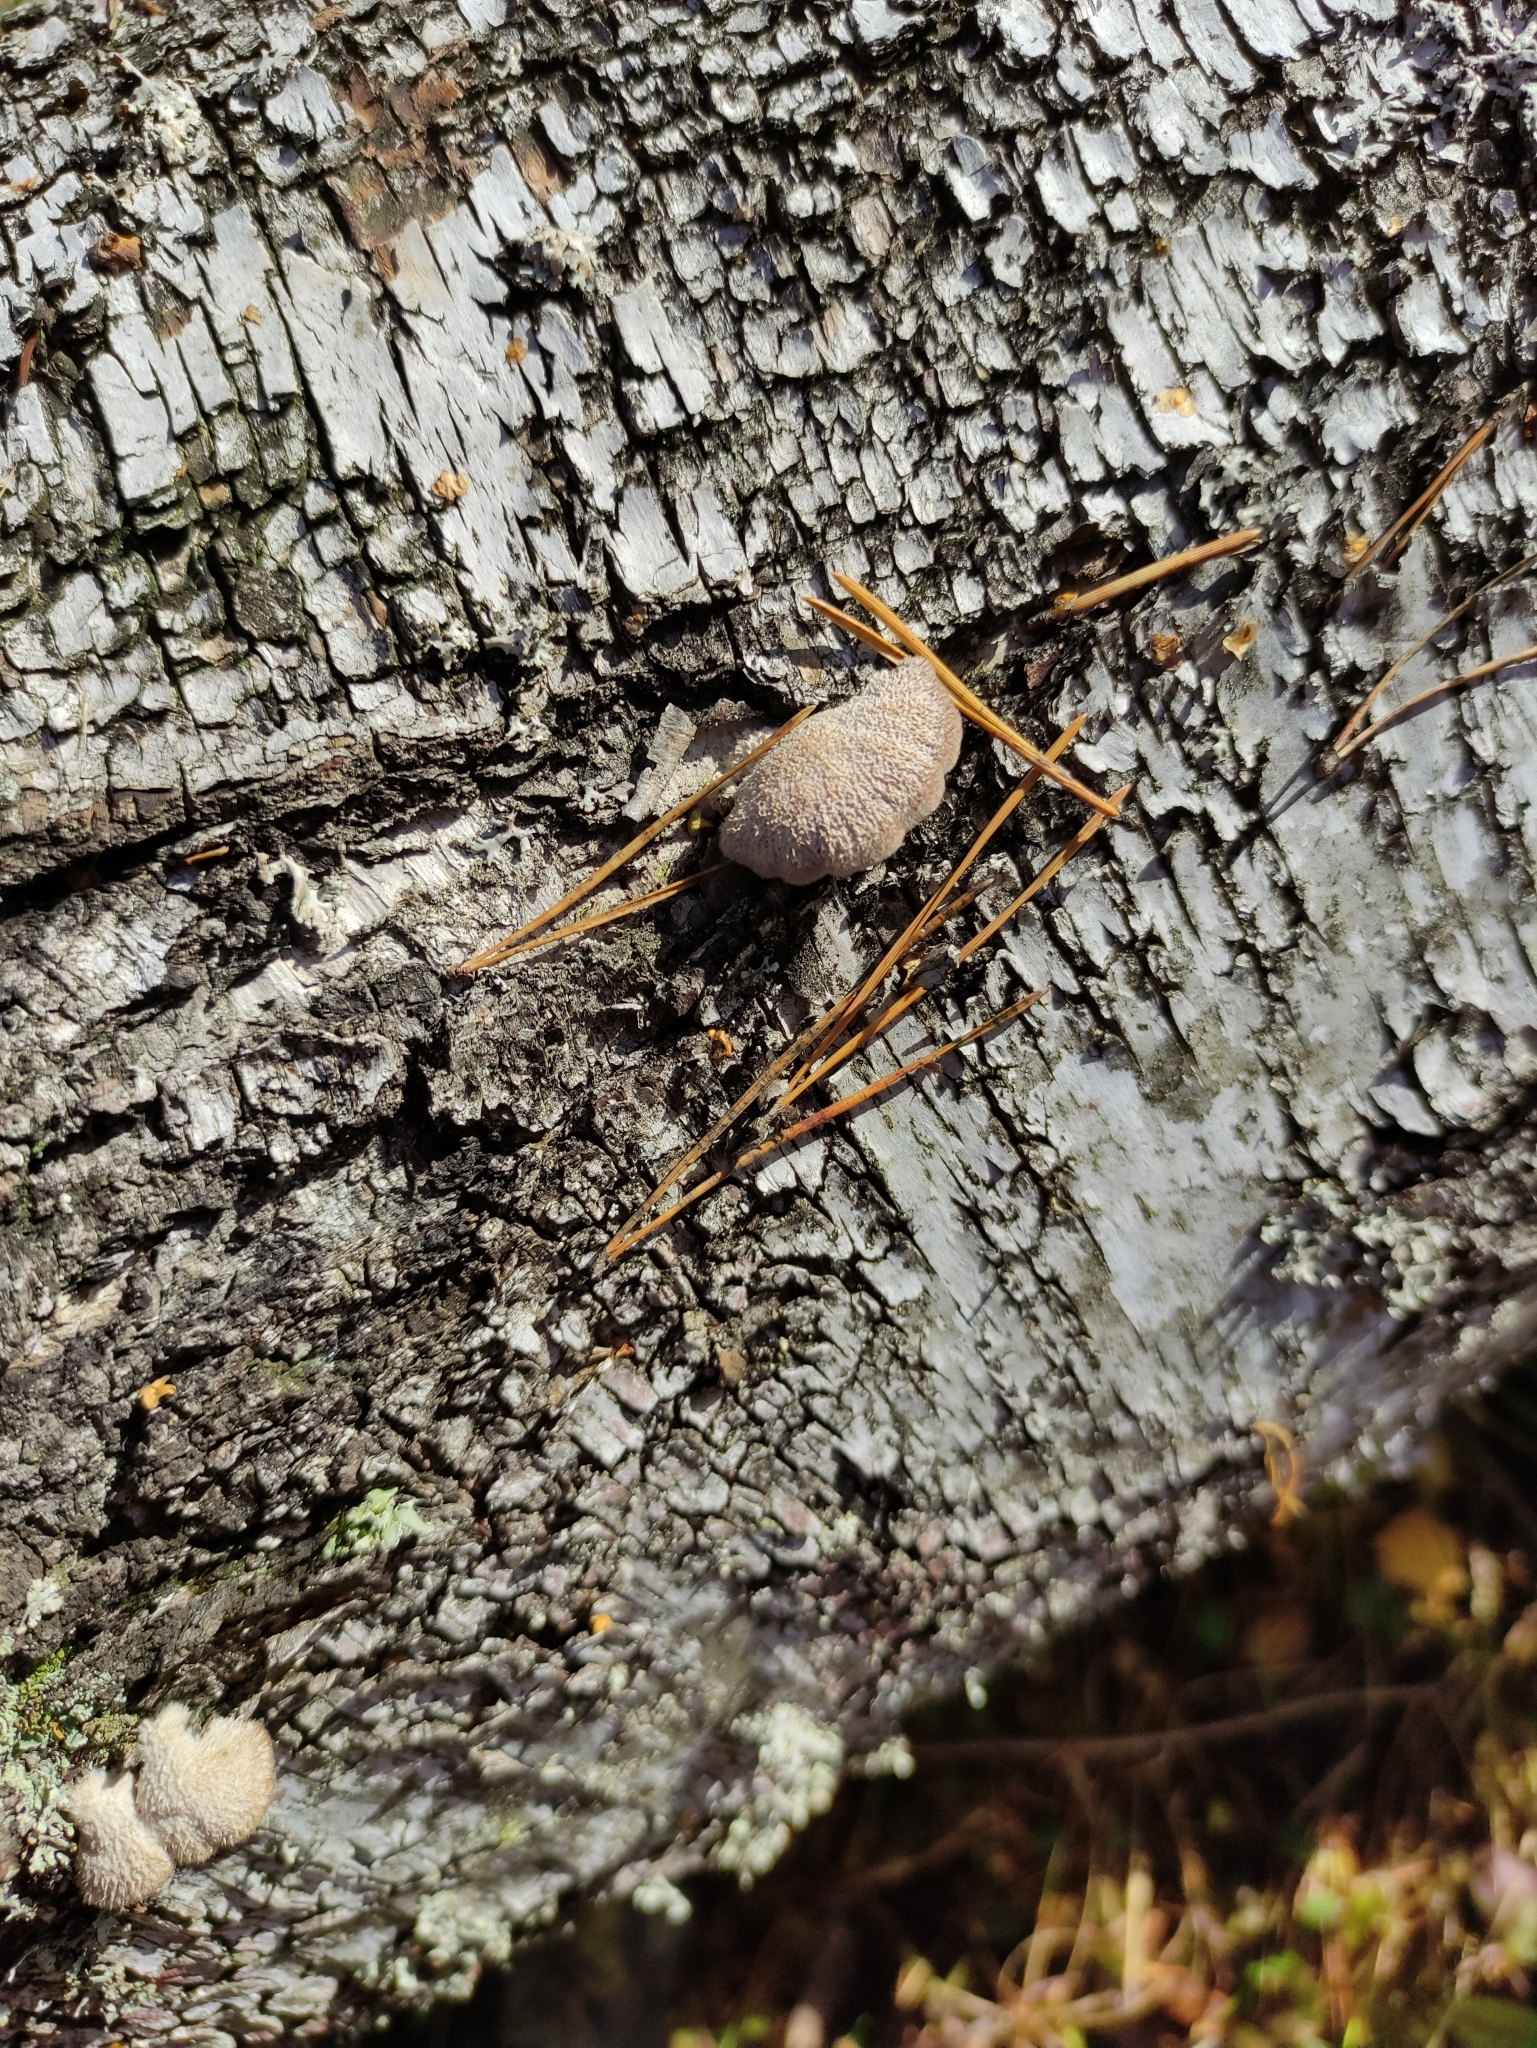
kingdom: Fungi
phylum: Basidiomycota
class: Agaricomycetes
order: Agaricales
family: Schizophyllaceae
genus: Schizophyllum
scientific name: Schizophyllum commune
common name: Common porecrust
